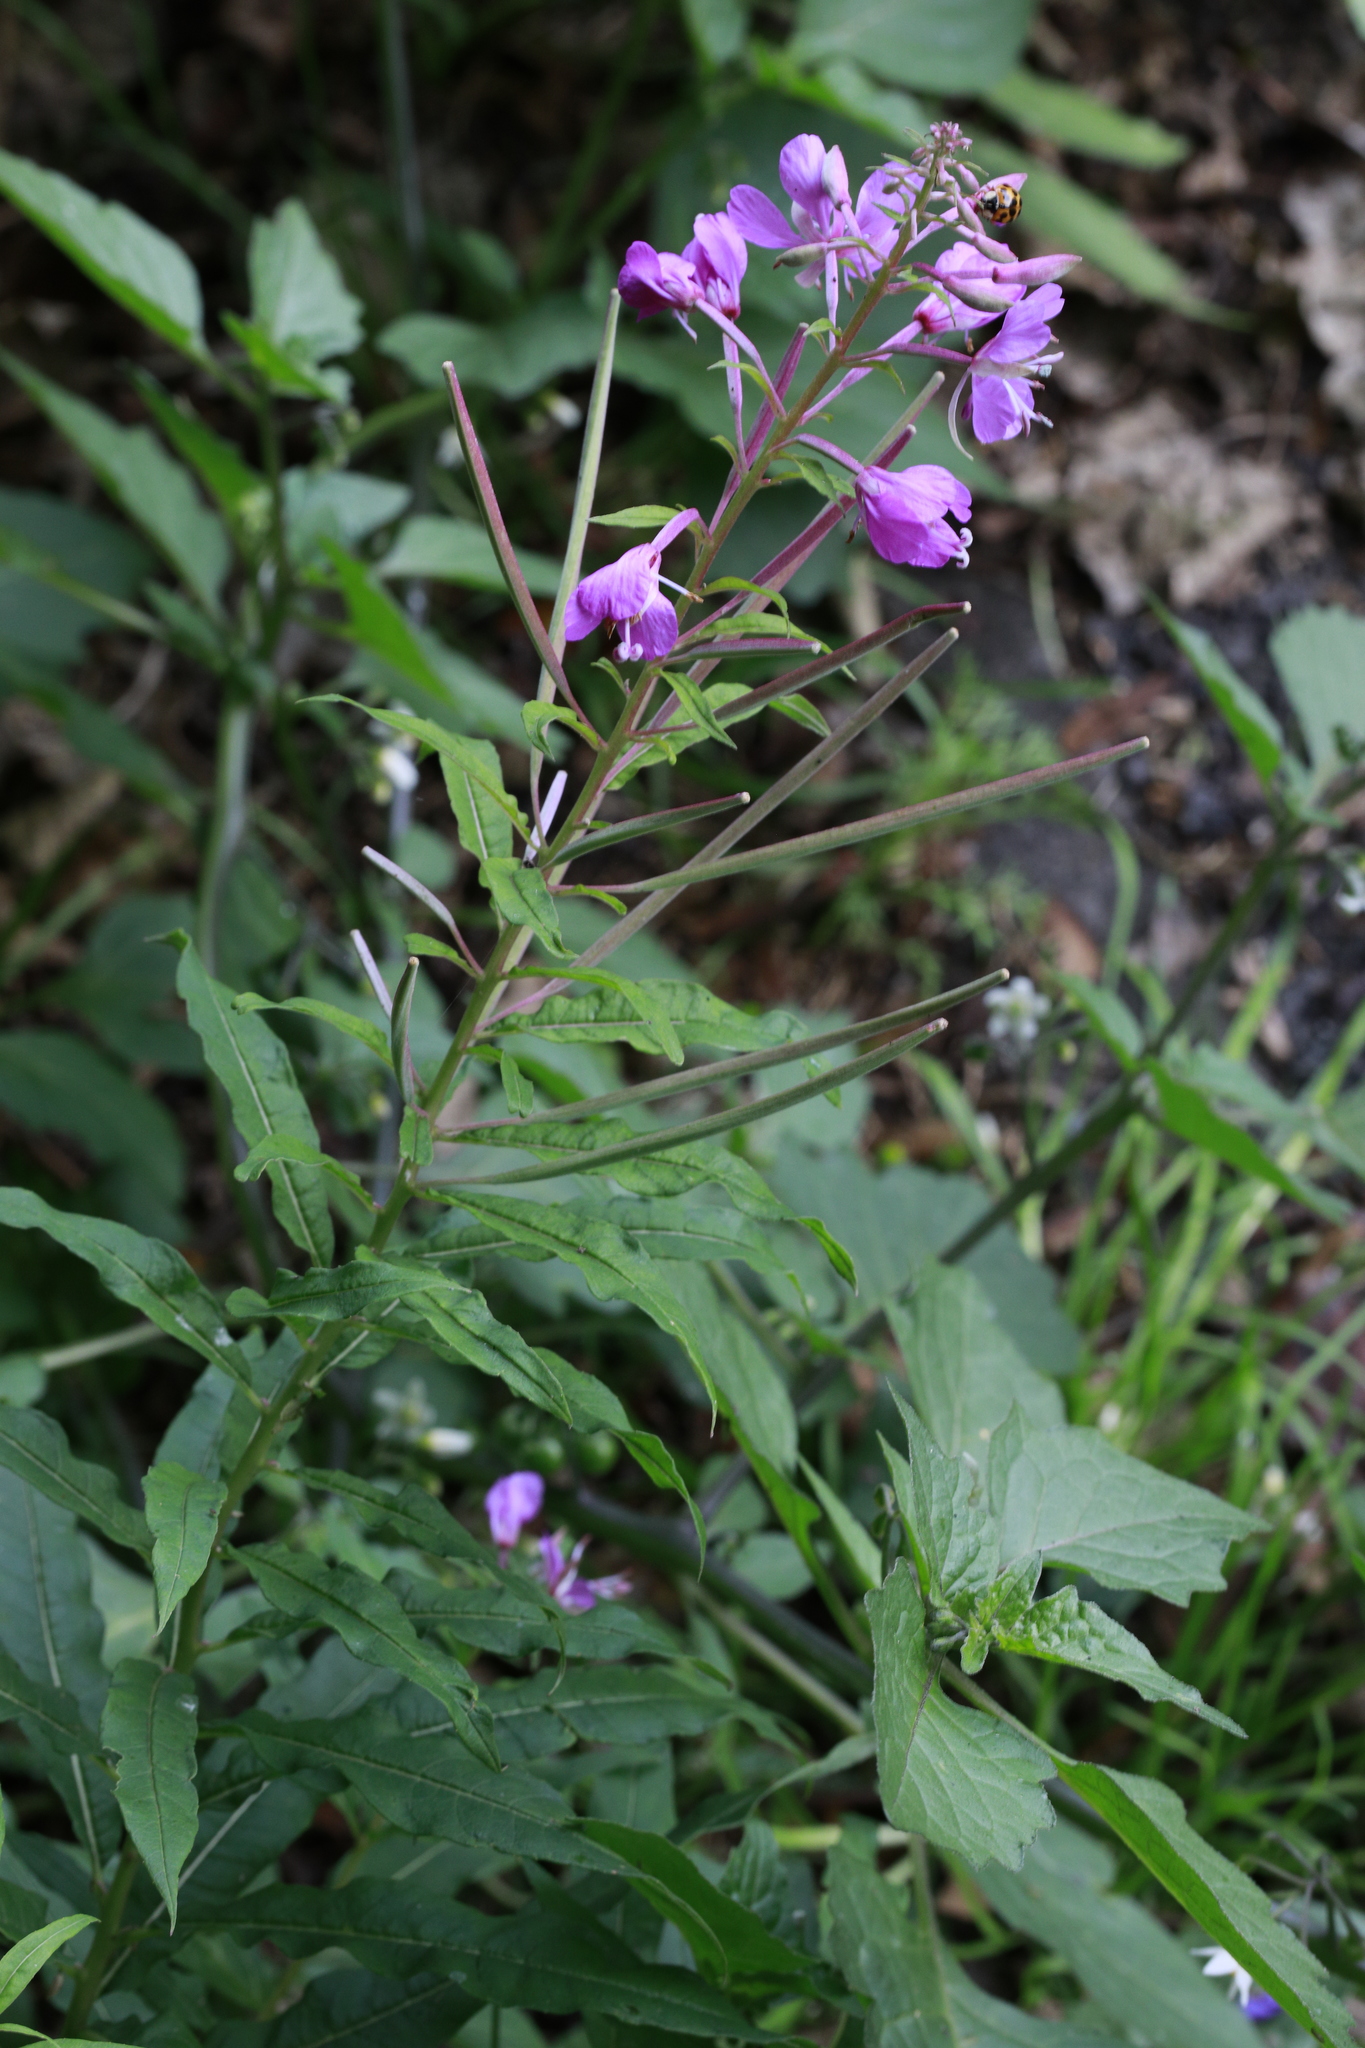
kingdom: Plantae
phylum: Tracheophyta
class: Magnoliopsida
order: Myrtales
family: Onagraceae
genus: Chamaenerion
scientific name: Chamaenerion angustifolium
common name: Fireweed
